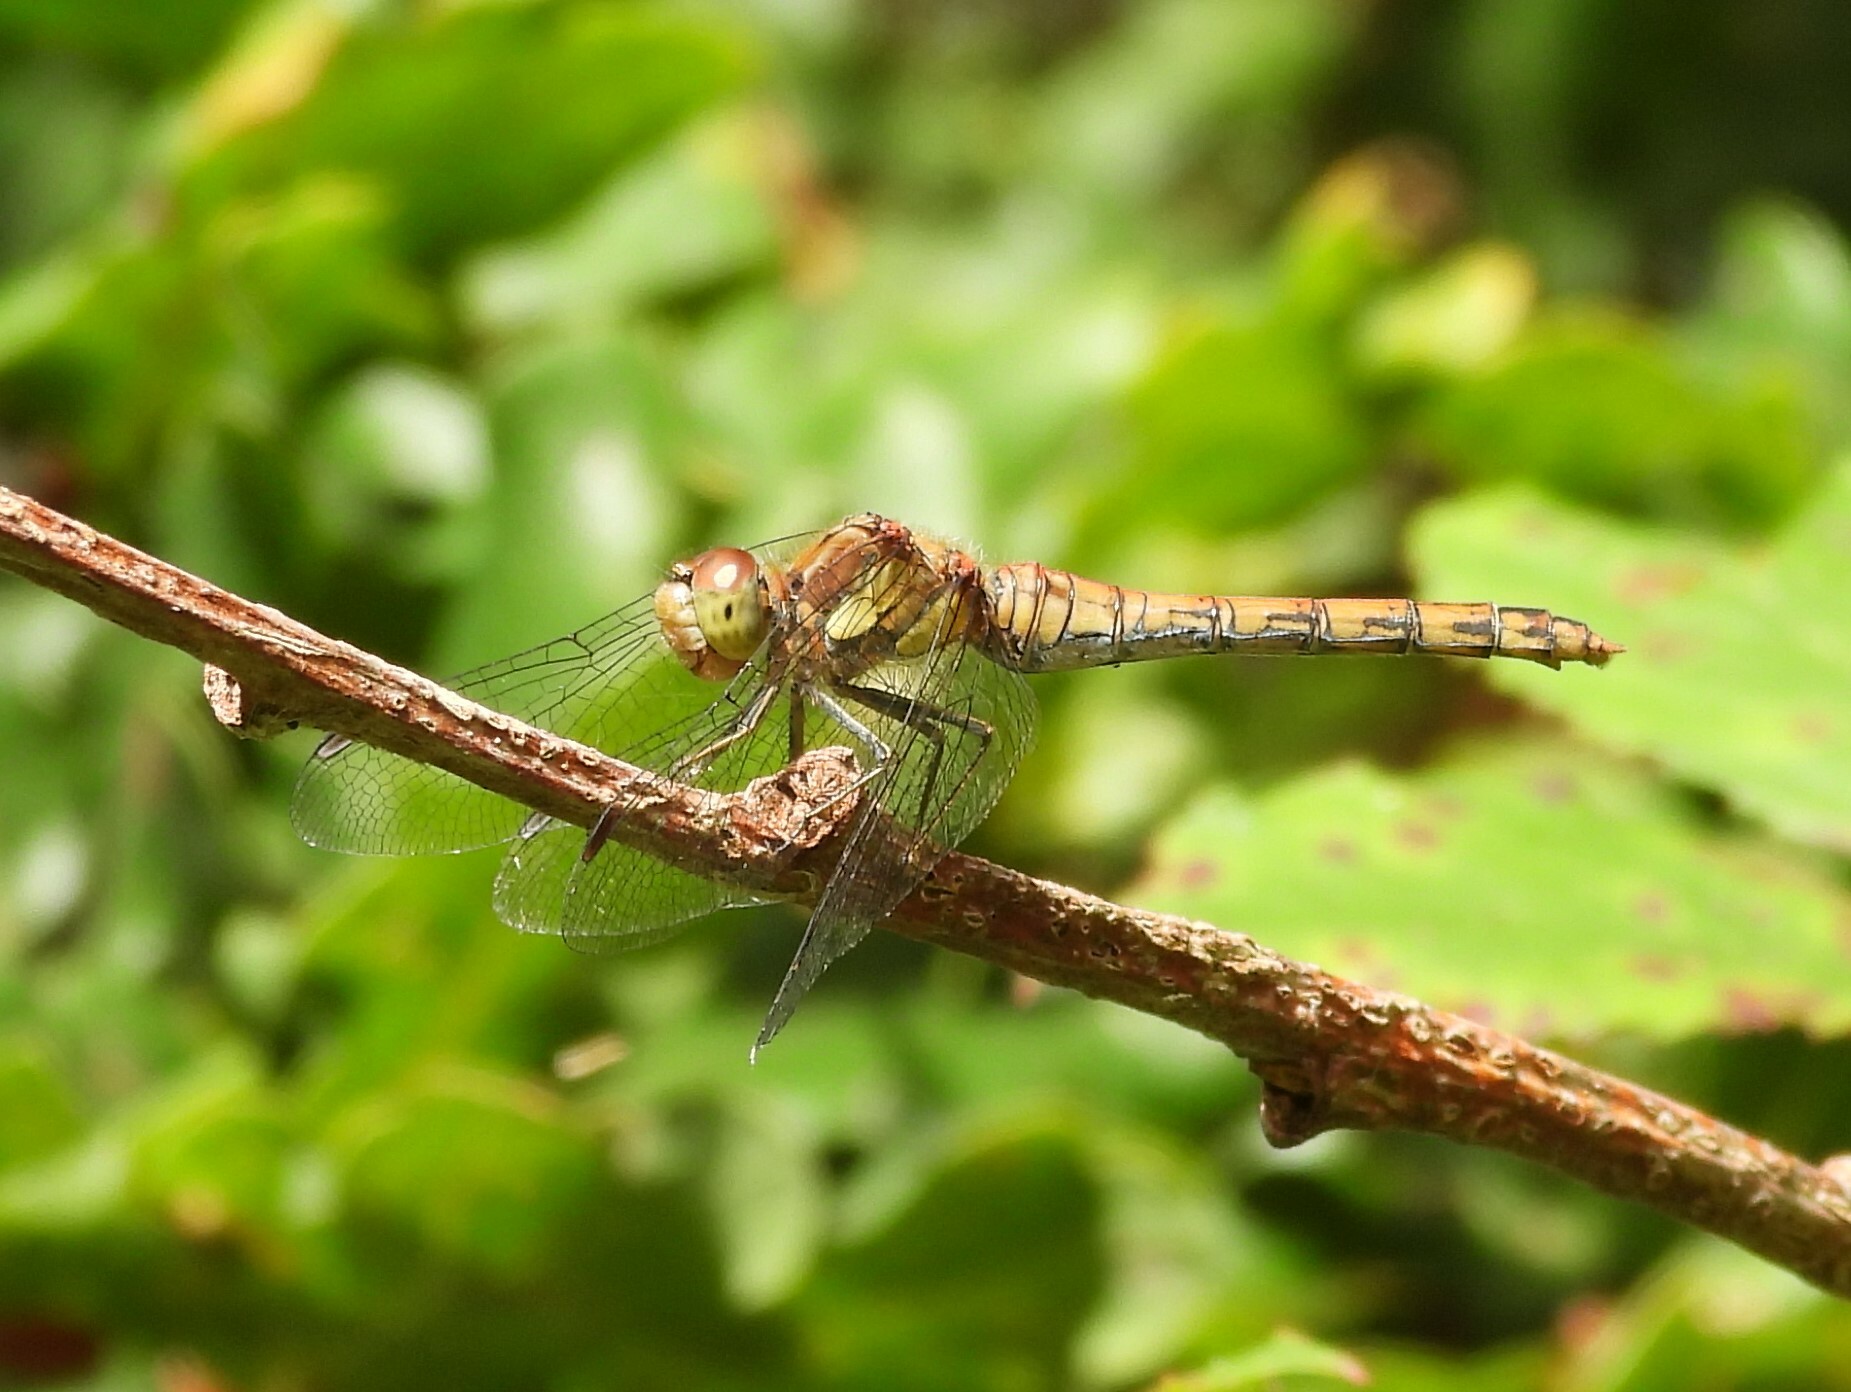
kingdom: Animalia
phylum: Arthropoda
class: Insecta
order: Odonata
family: Libellulidae
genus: Sympetrum
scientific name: Sympetrum striolatum
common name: Common darter
